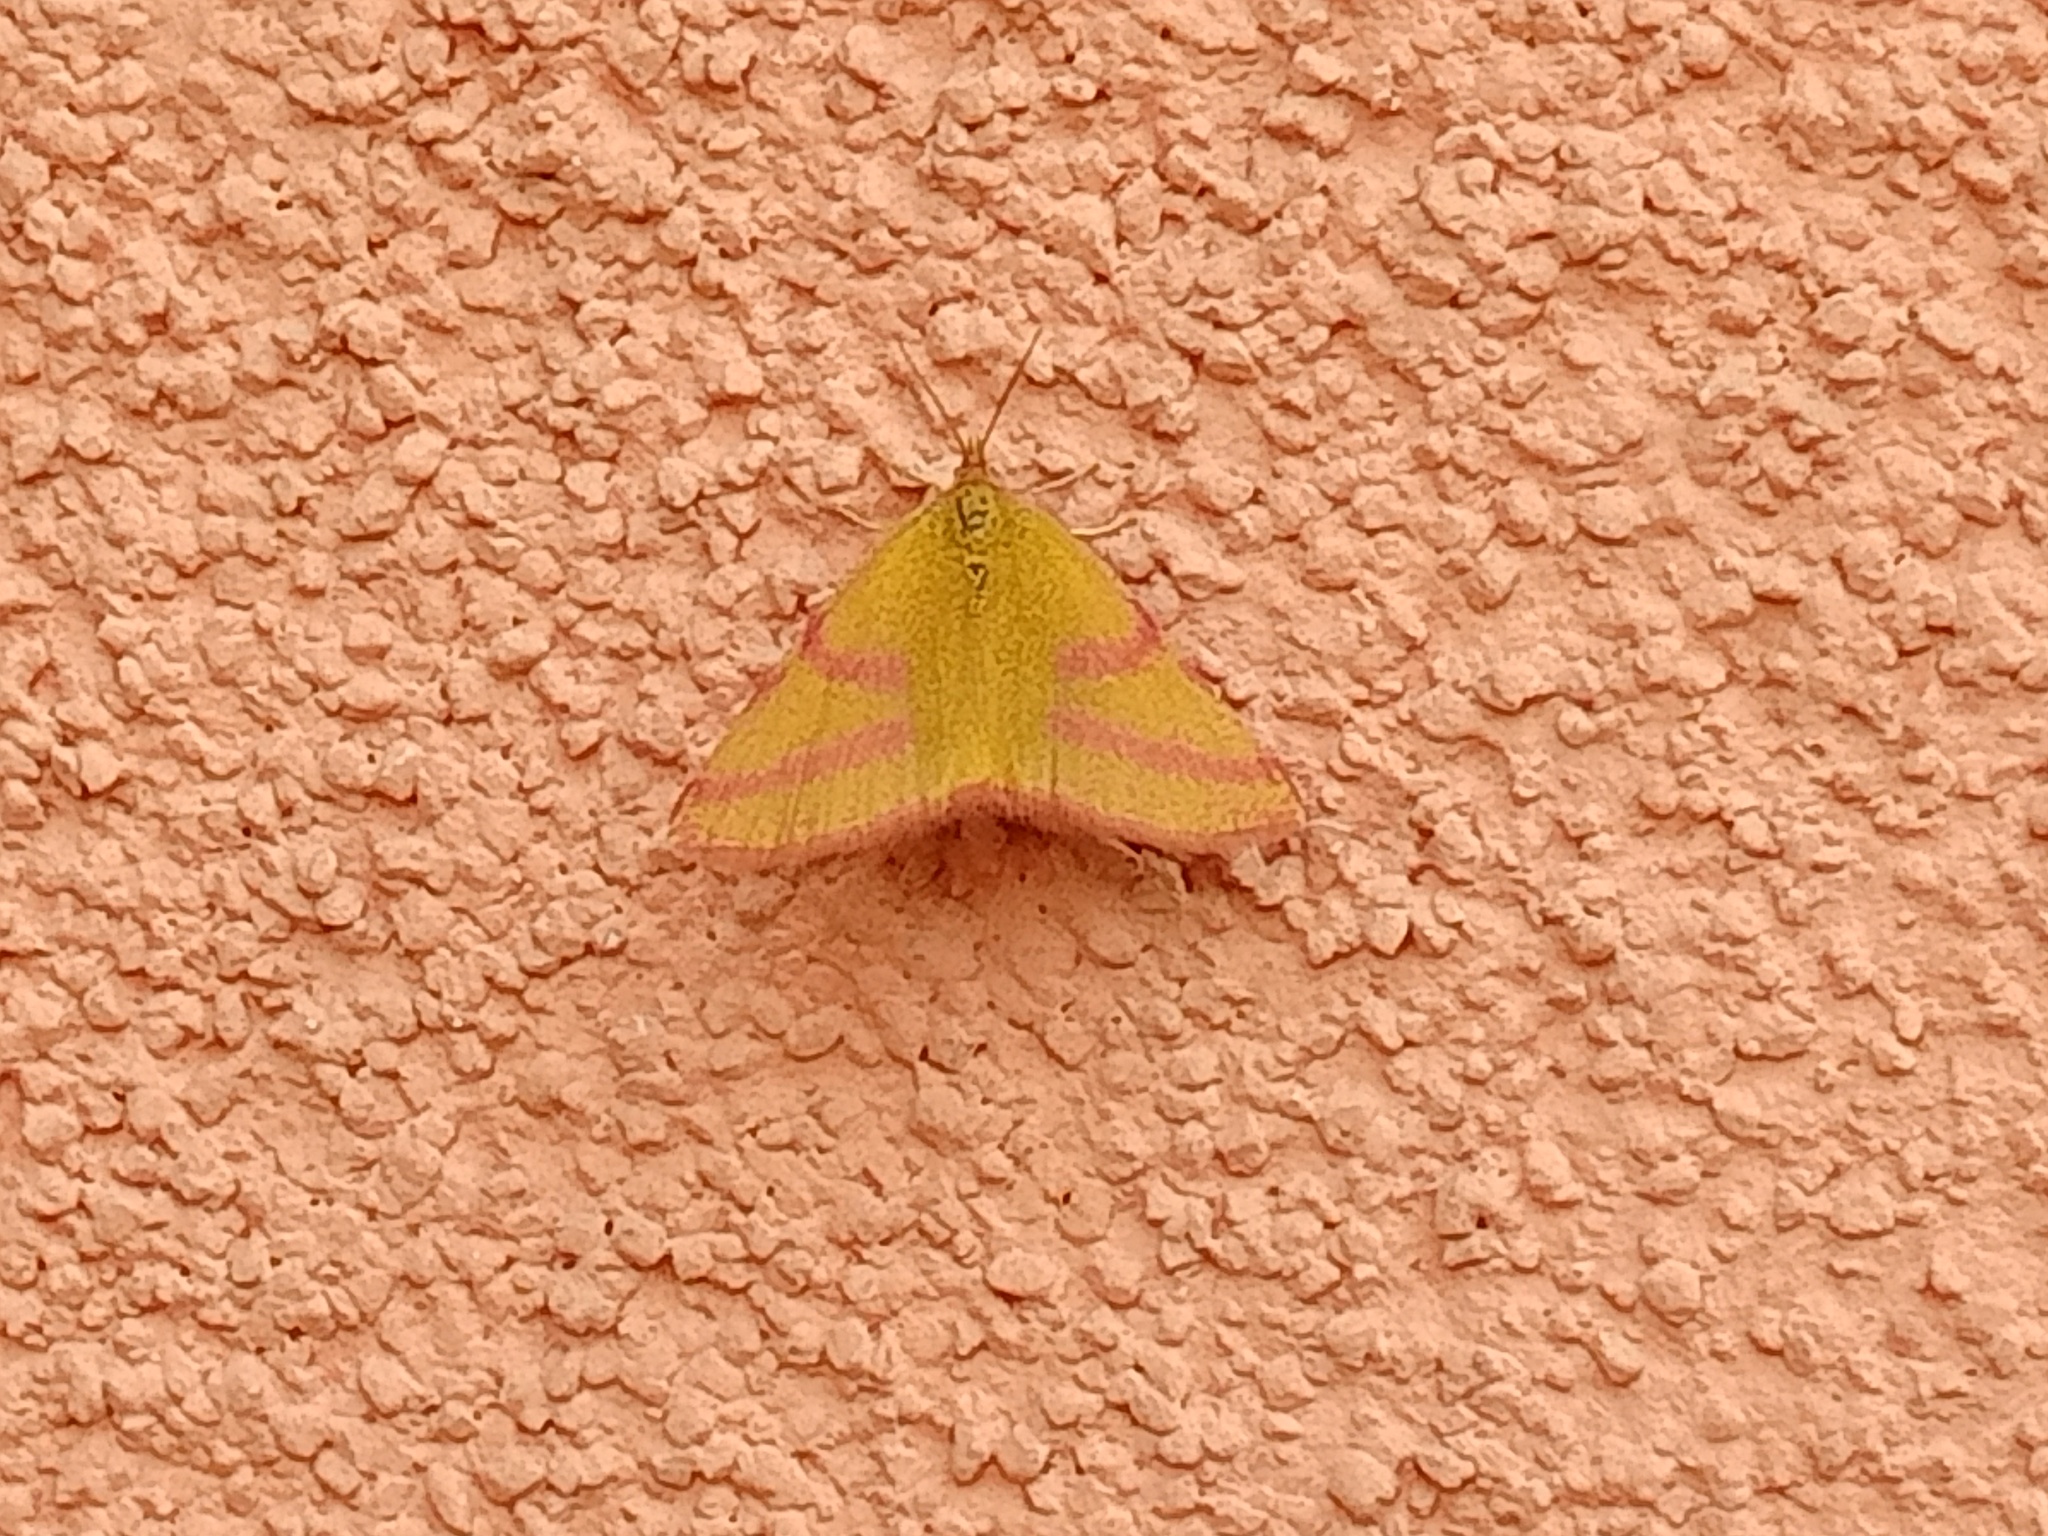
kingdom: Animalia
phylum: Arthropoda
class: Insecta
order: Lepidoptera
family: Geometridae
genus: Lythria
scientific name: Lythria purpuraria
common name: Purple-barred yellow
